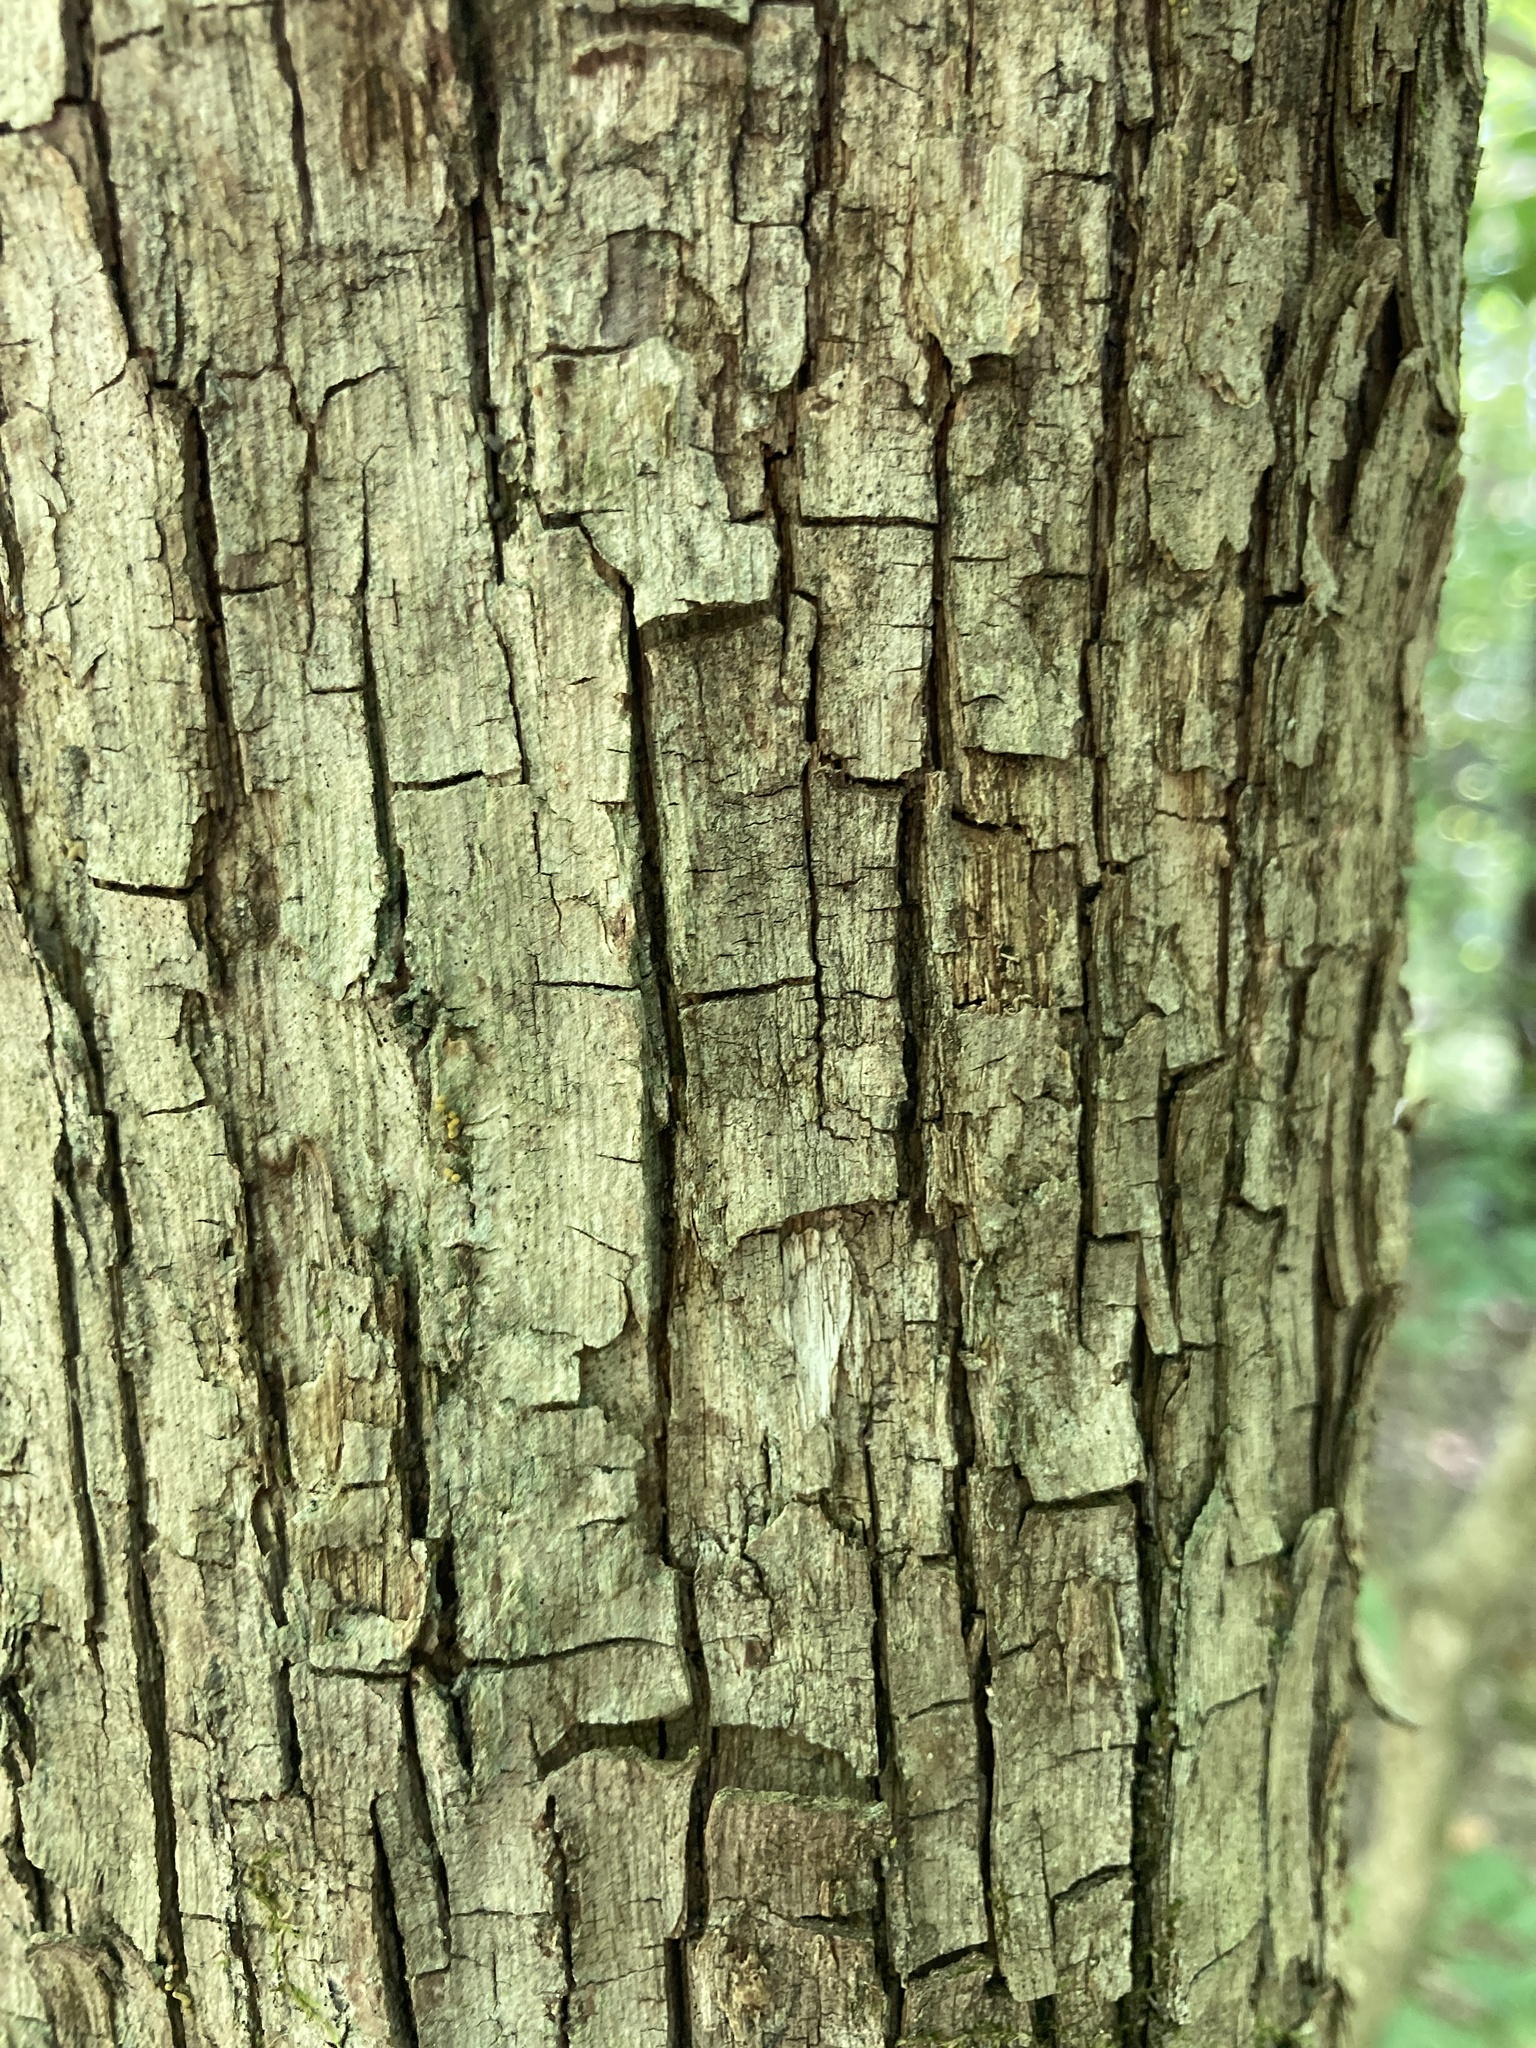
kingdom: Plantae
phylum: Tracheophyta
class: Magnoliopsida
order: Fagales
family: Betulaceae
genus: Ostrya
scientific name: Ostrya virginiana
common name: Ironwood
